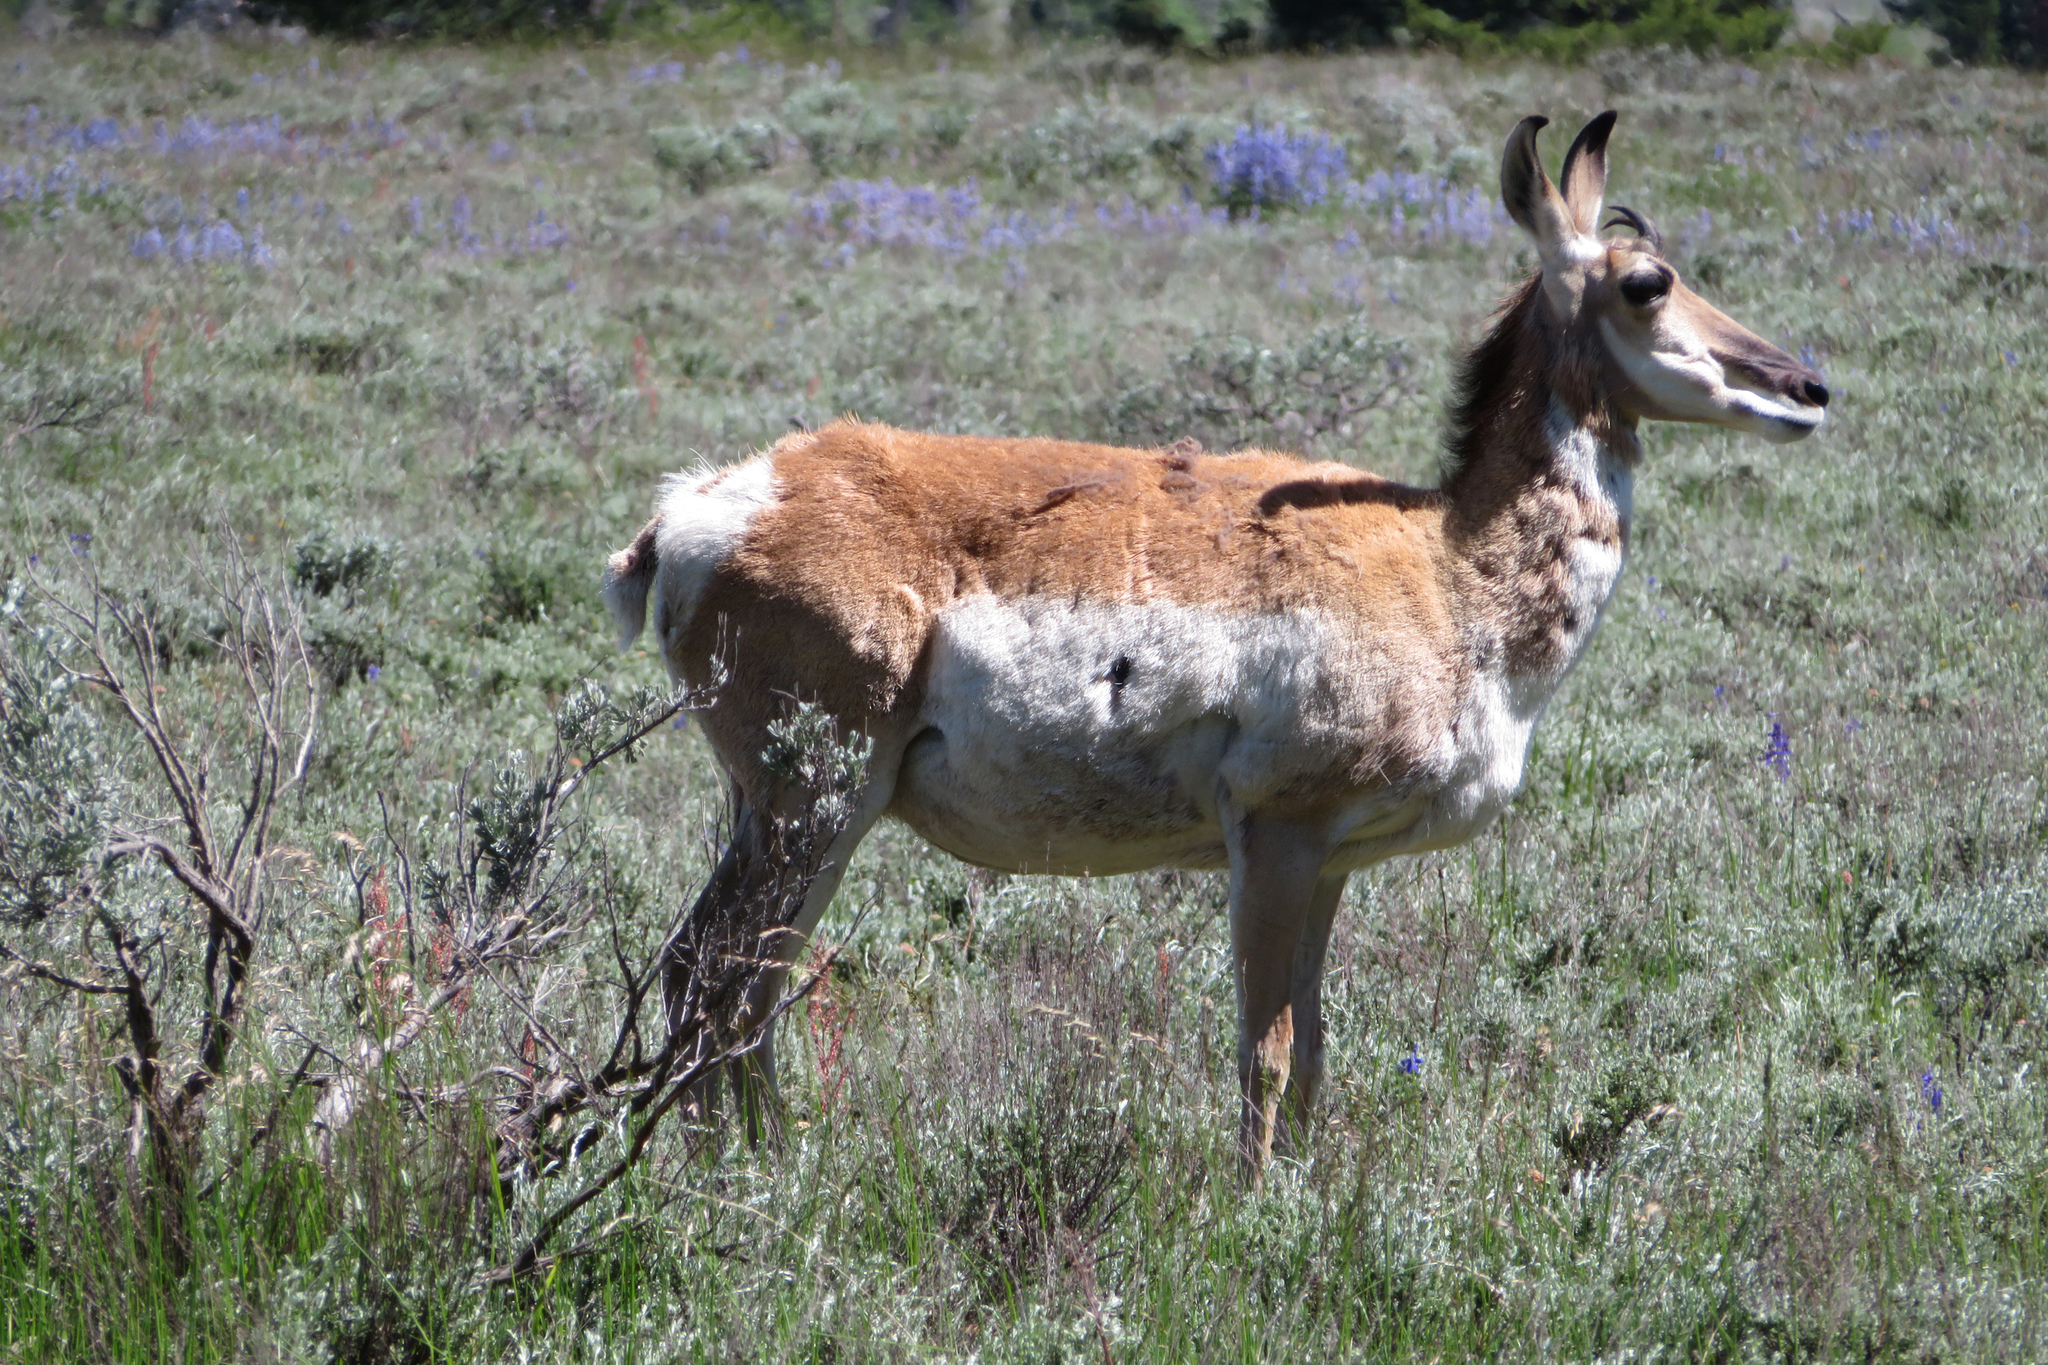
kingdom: Animalia
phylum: Chordata
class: Mammalia
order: Artiodactyla
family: Antilocapridae
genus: Antilocapra
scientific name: Antilocapra americana
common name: Pronghorn
